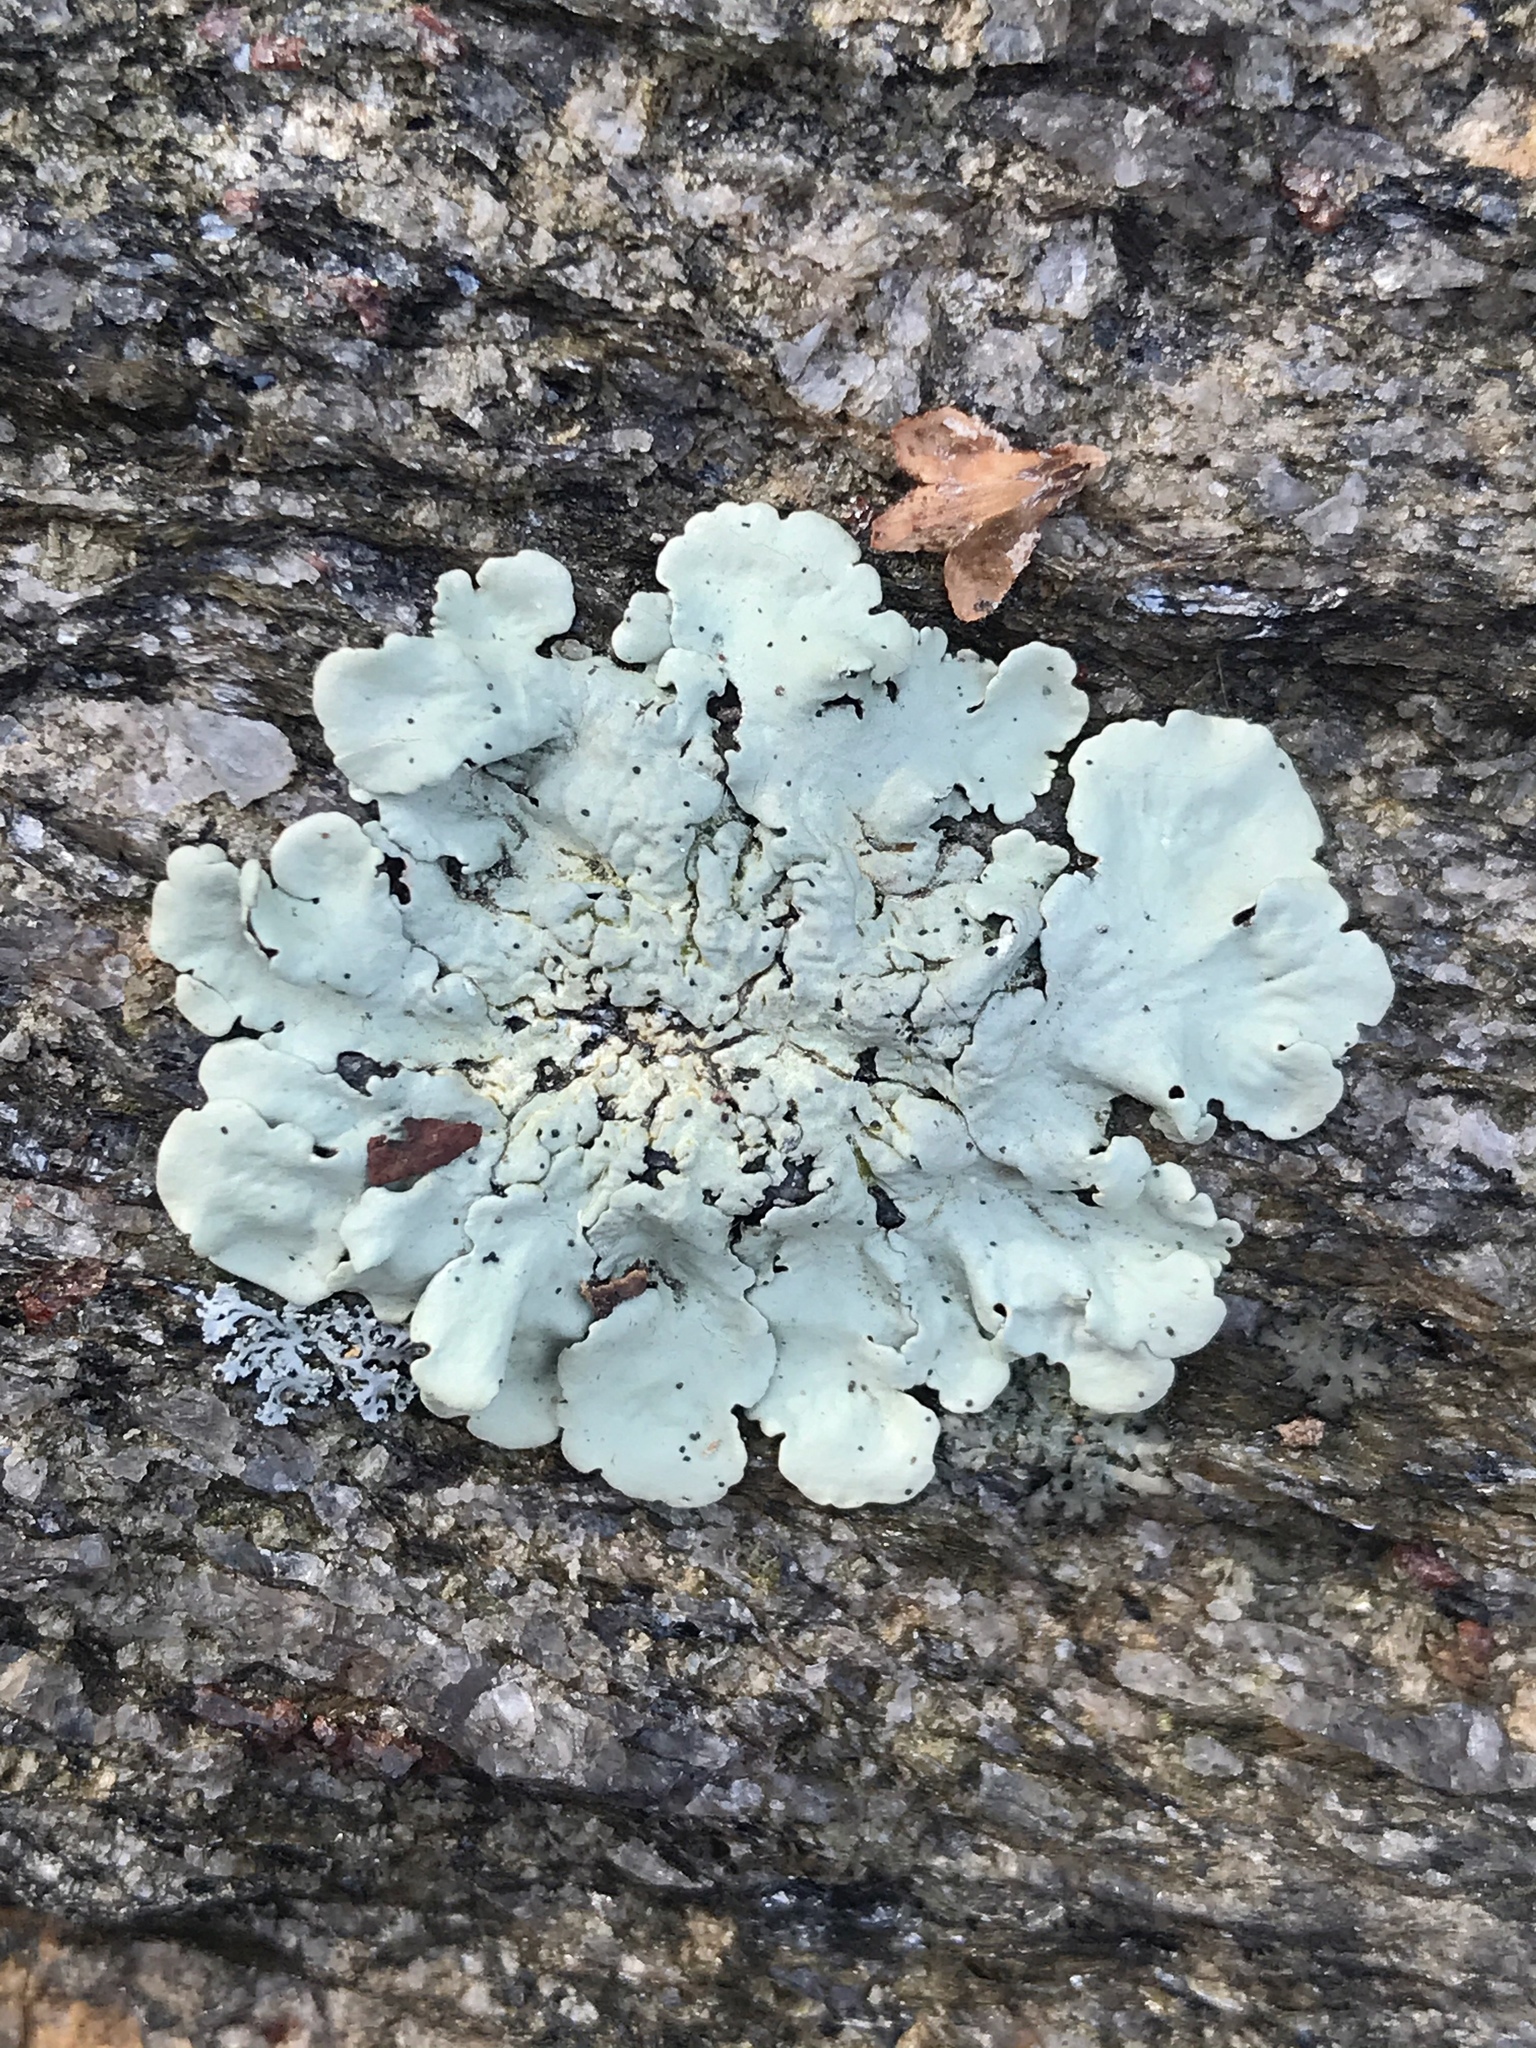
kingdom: Fungi
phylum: Ascomycota
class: Lecanoromycetes
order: Lecanorales
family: Parmeliaceae
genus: Flavoparmelia
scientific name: Flavoparmelia caperata
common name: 40-mile per hour lichen
